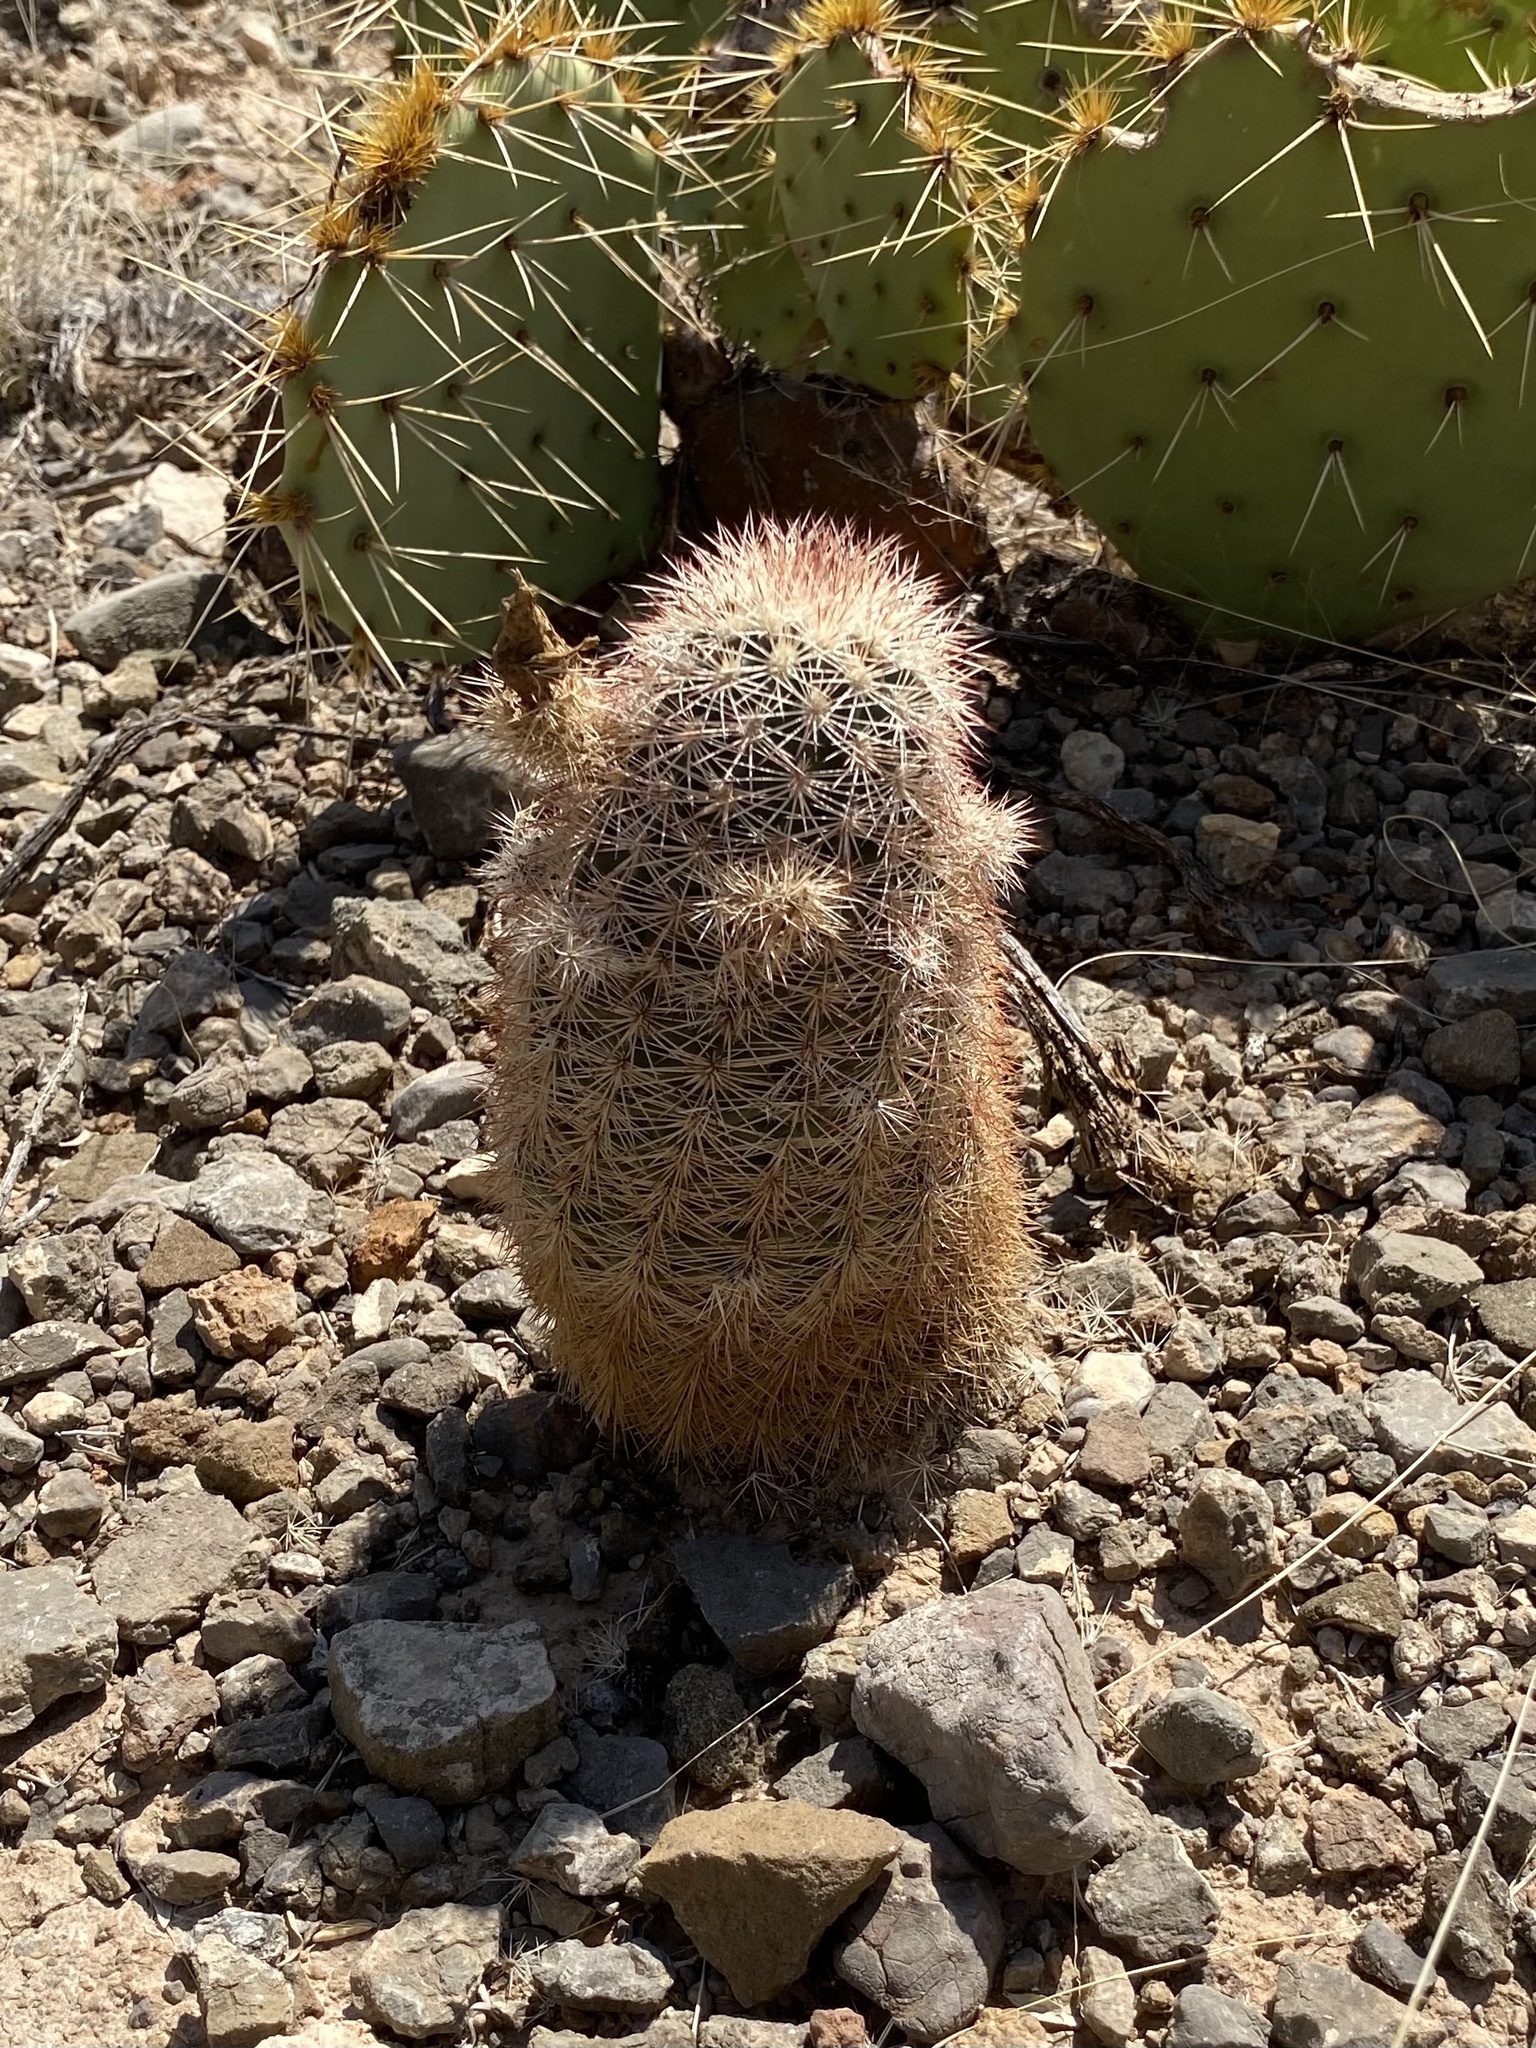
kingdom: Plantae
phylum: Tracheophyta
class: Magnoliopsida
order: Caryophyllales
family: Cactaceae
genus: Echinocereus
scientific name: Echinocereus dasyacanthus
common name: Spiny hedgehog cactus
